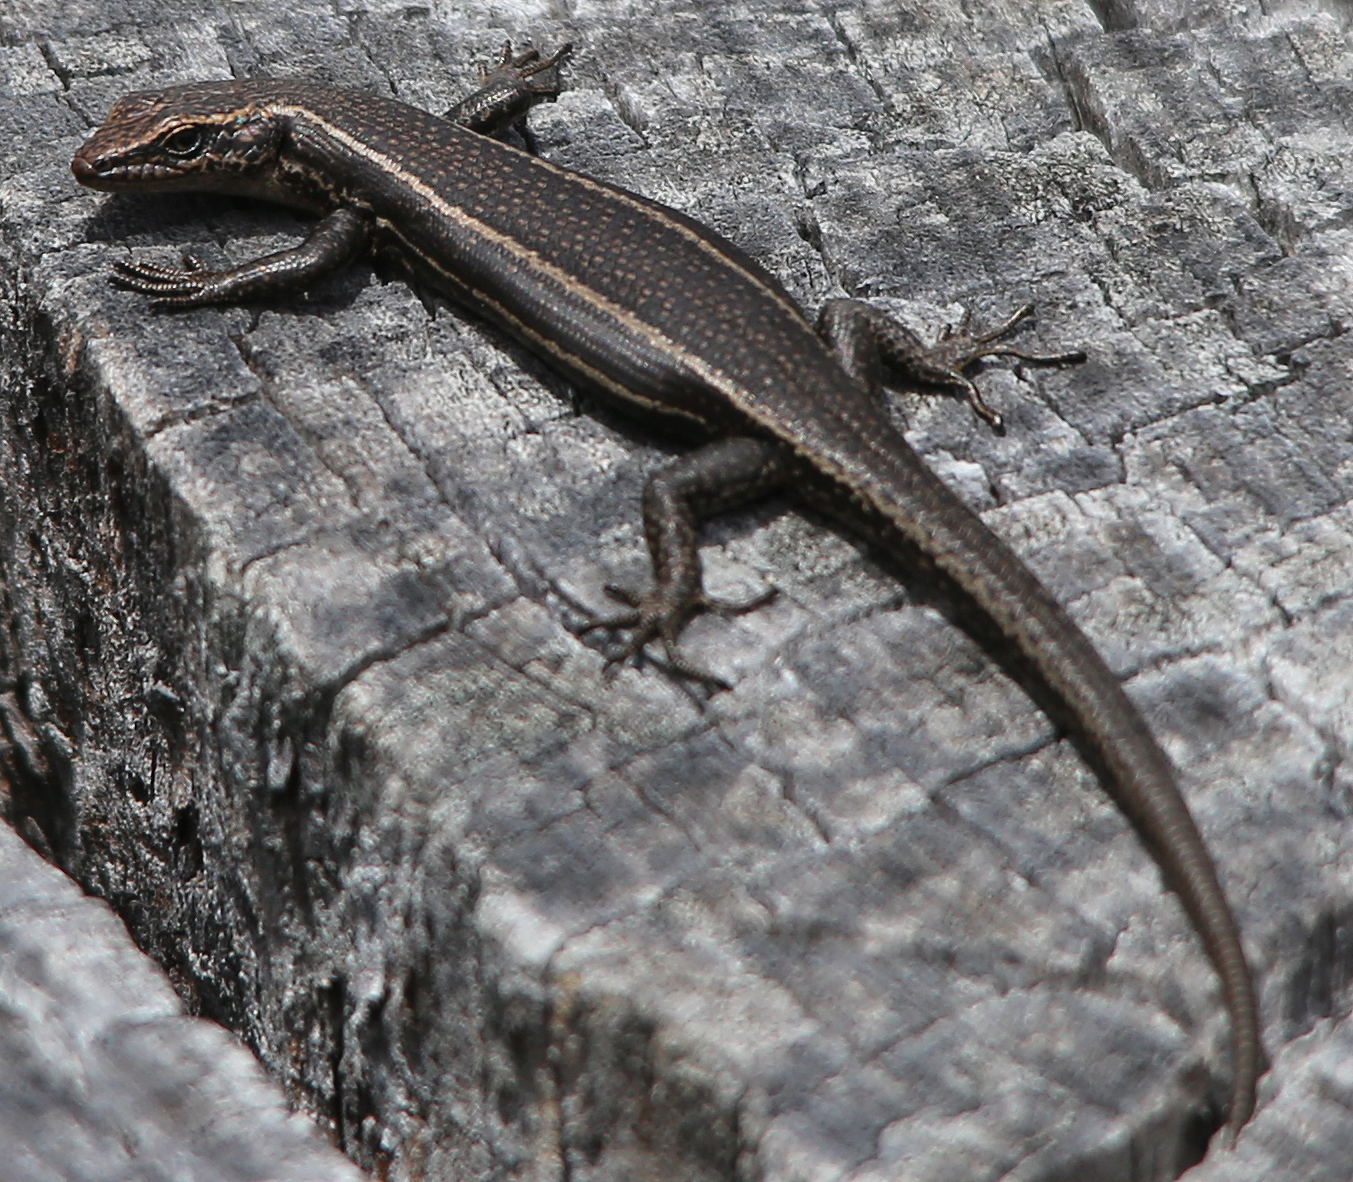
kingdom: Animalia
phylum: Chordata
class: Squamata
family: Scincidae
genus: Pseudemoia
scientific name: Pseudemoia spenceri
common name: Trunk-climbing cool-skink
